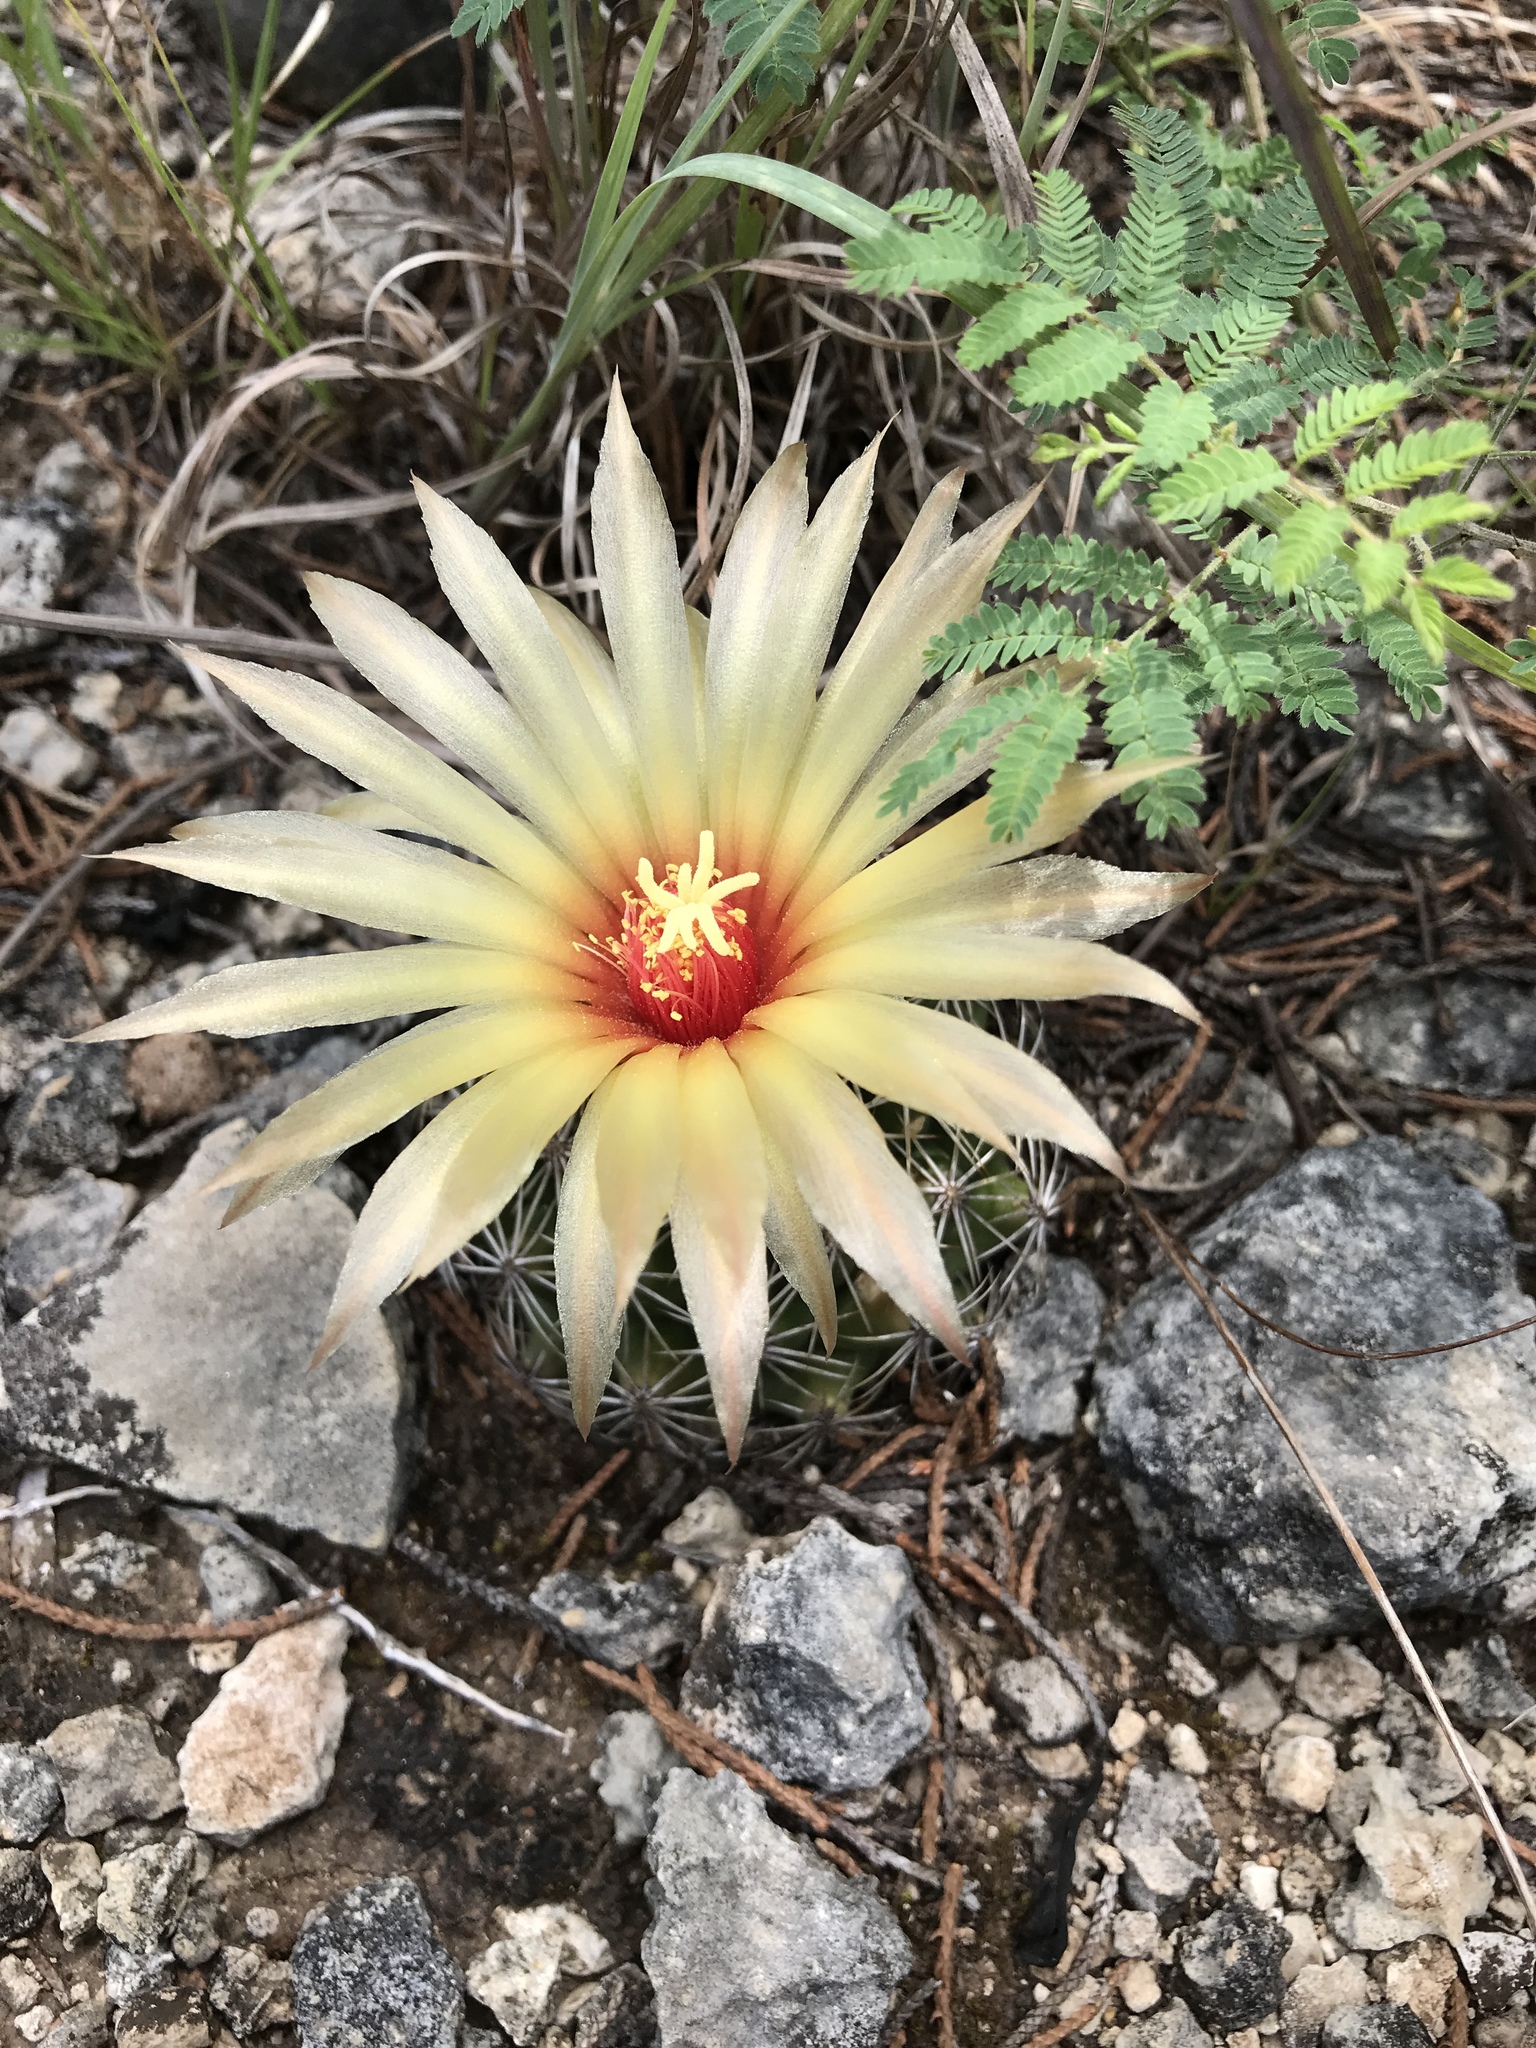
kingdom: Plantae
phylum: Tracheophyta
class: Magnoliopsida
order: Caryophyllales
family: Cactaceae
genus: Coryphantha
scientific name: Coryphantha sulcata
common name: Finger cactus
